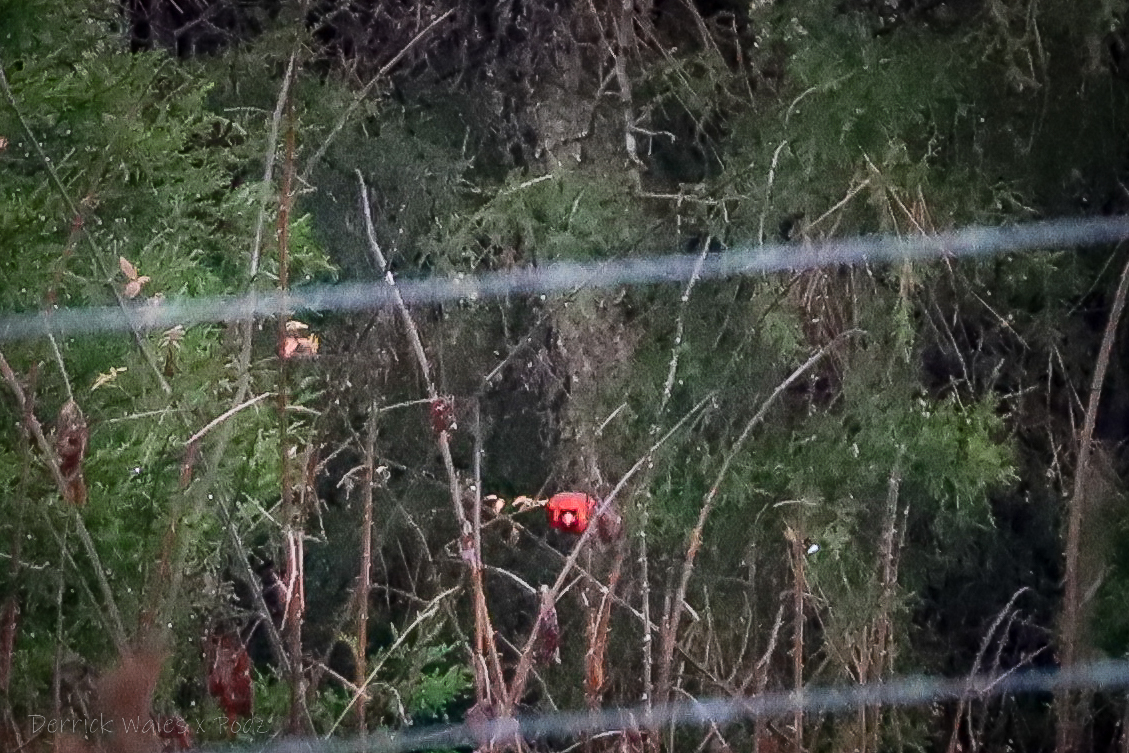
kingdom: Animalia
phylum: Chordata
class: Aves
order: Passeriformes
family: Cardinalidae
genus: Cardinalis
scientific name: Cardinalis cardinalis
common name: Northern cardinal
